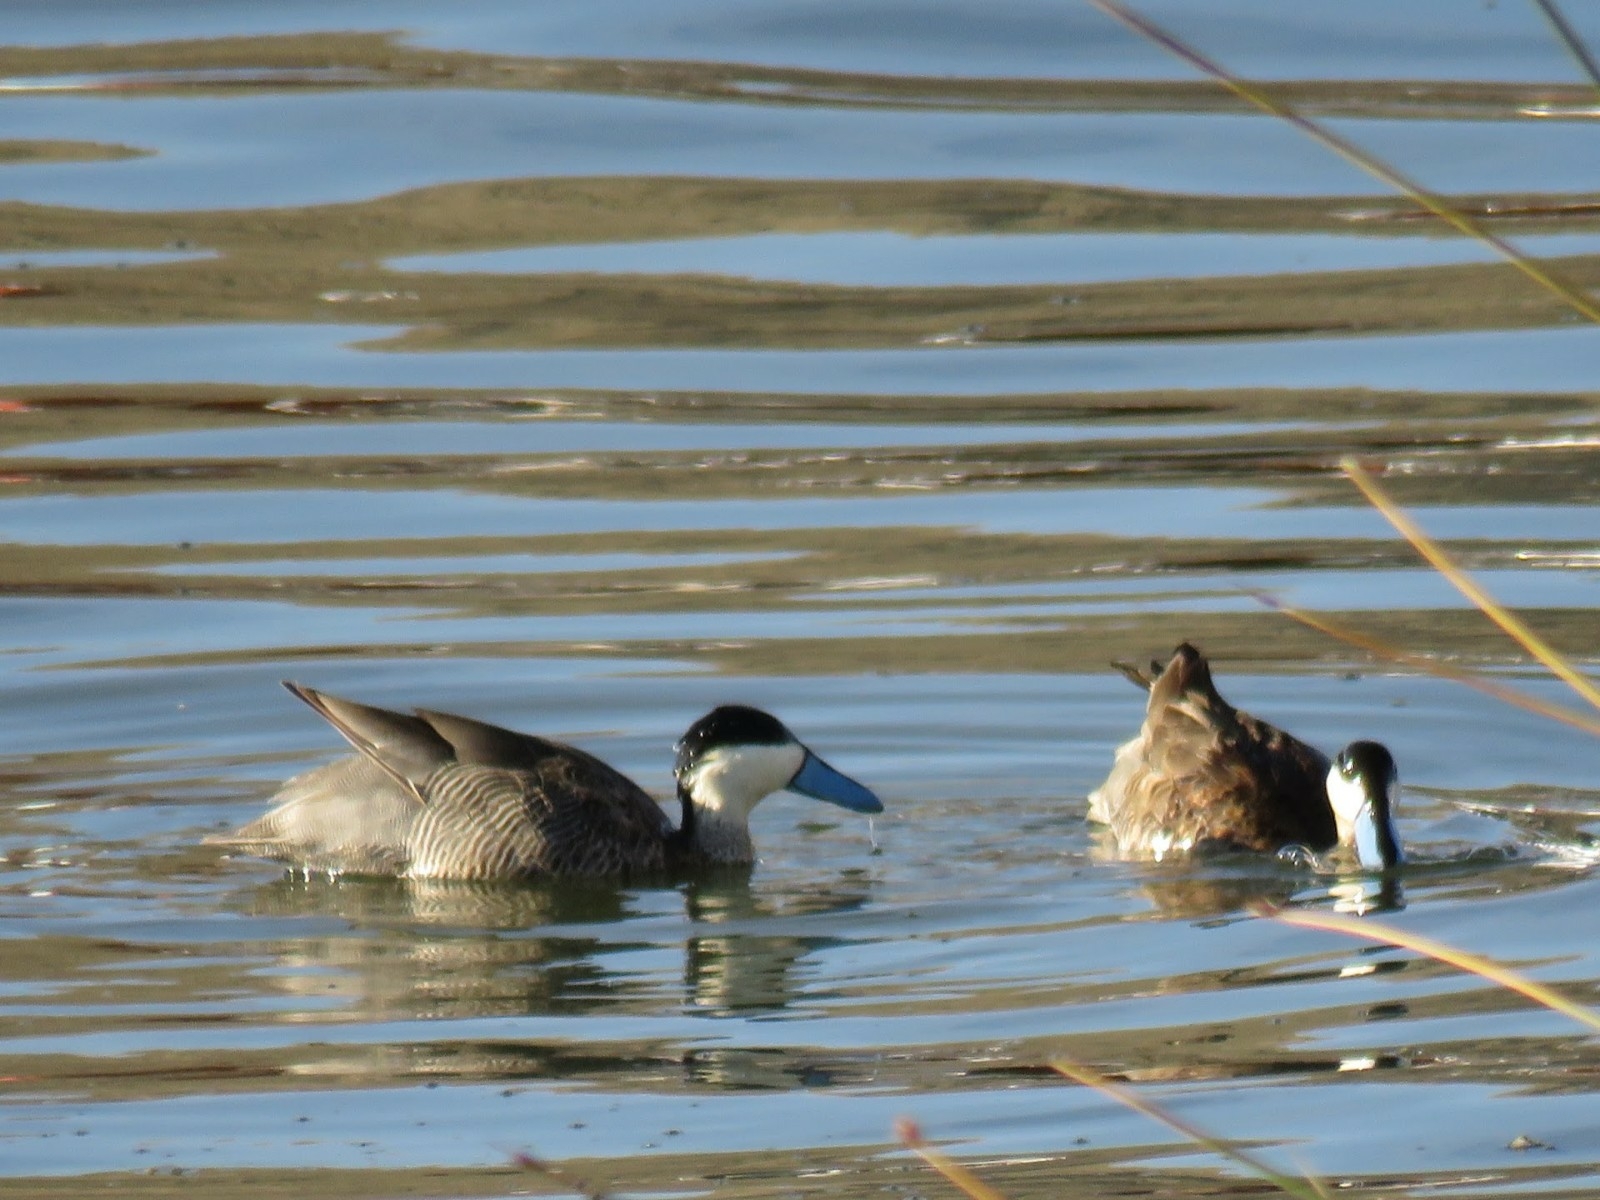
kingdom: Animalia
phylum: Chordata
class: Aves
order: Anseriformes
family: Anatidae
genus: Spatula
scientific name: Spatula puna
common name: Puna teal
